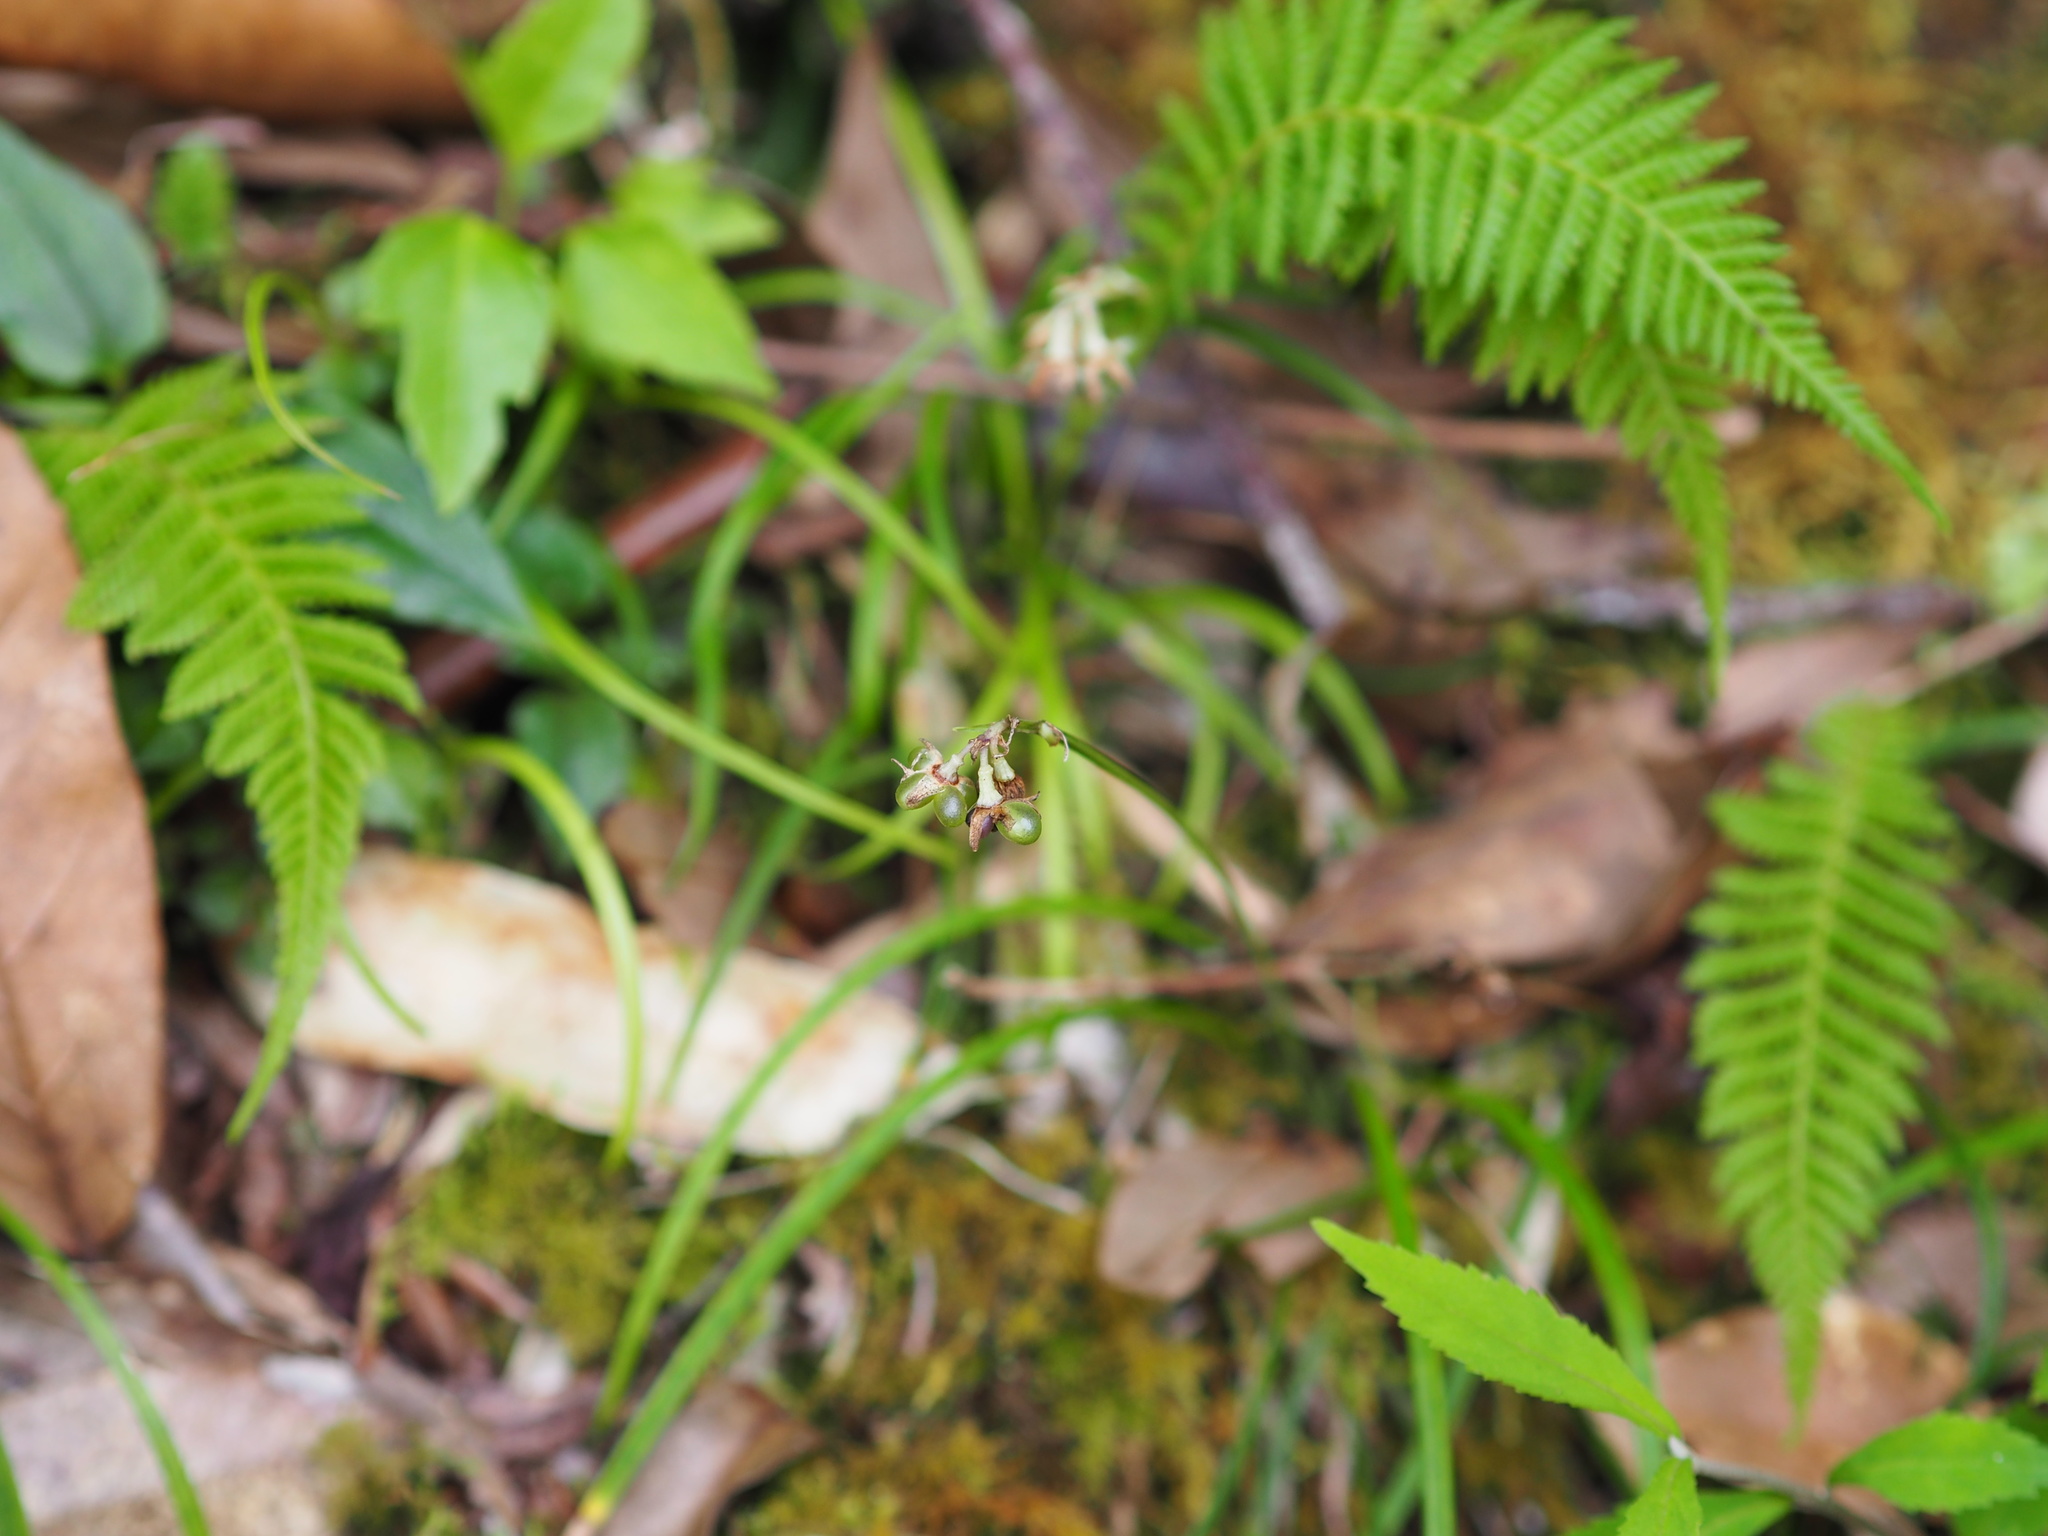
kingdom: Plantae
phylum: Tracheophyta
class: Liliopsida
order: Asparagales
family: Asparagaceae
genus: Ophiopogon
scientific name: Ophiopogon intermedius
